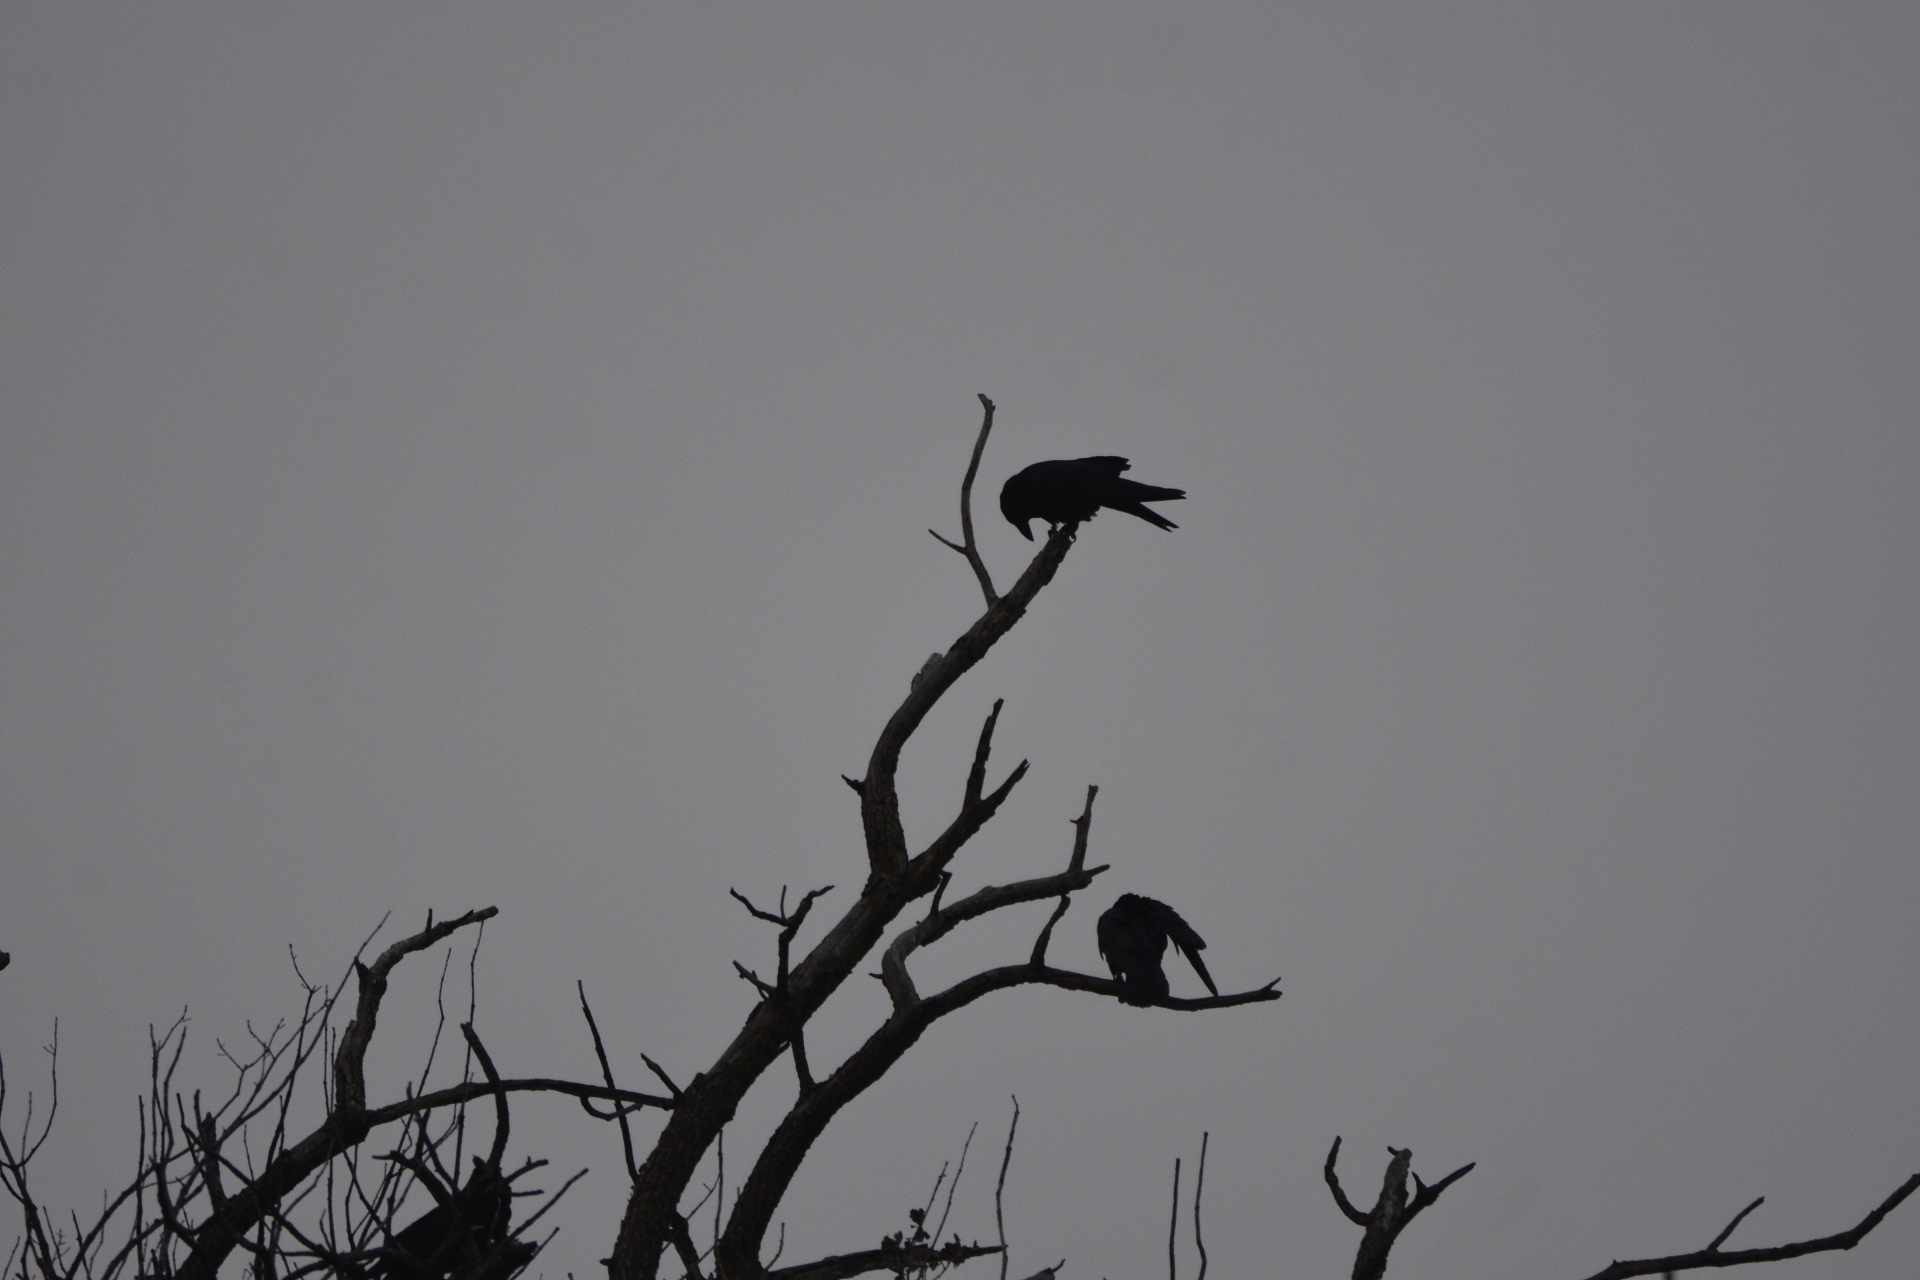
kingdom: Animalia
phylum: Chordata
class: Aves
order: Passeriformes
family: Corvidae
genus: Corvus
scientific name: Corvus corax
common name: Common raven
